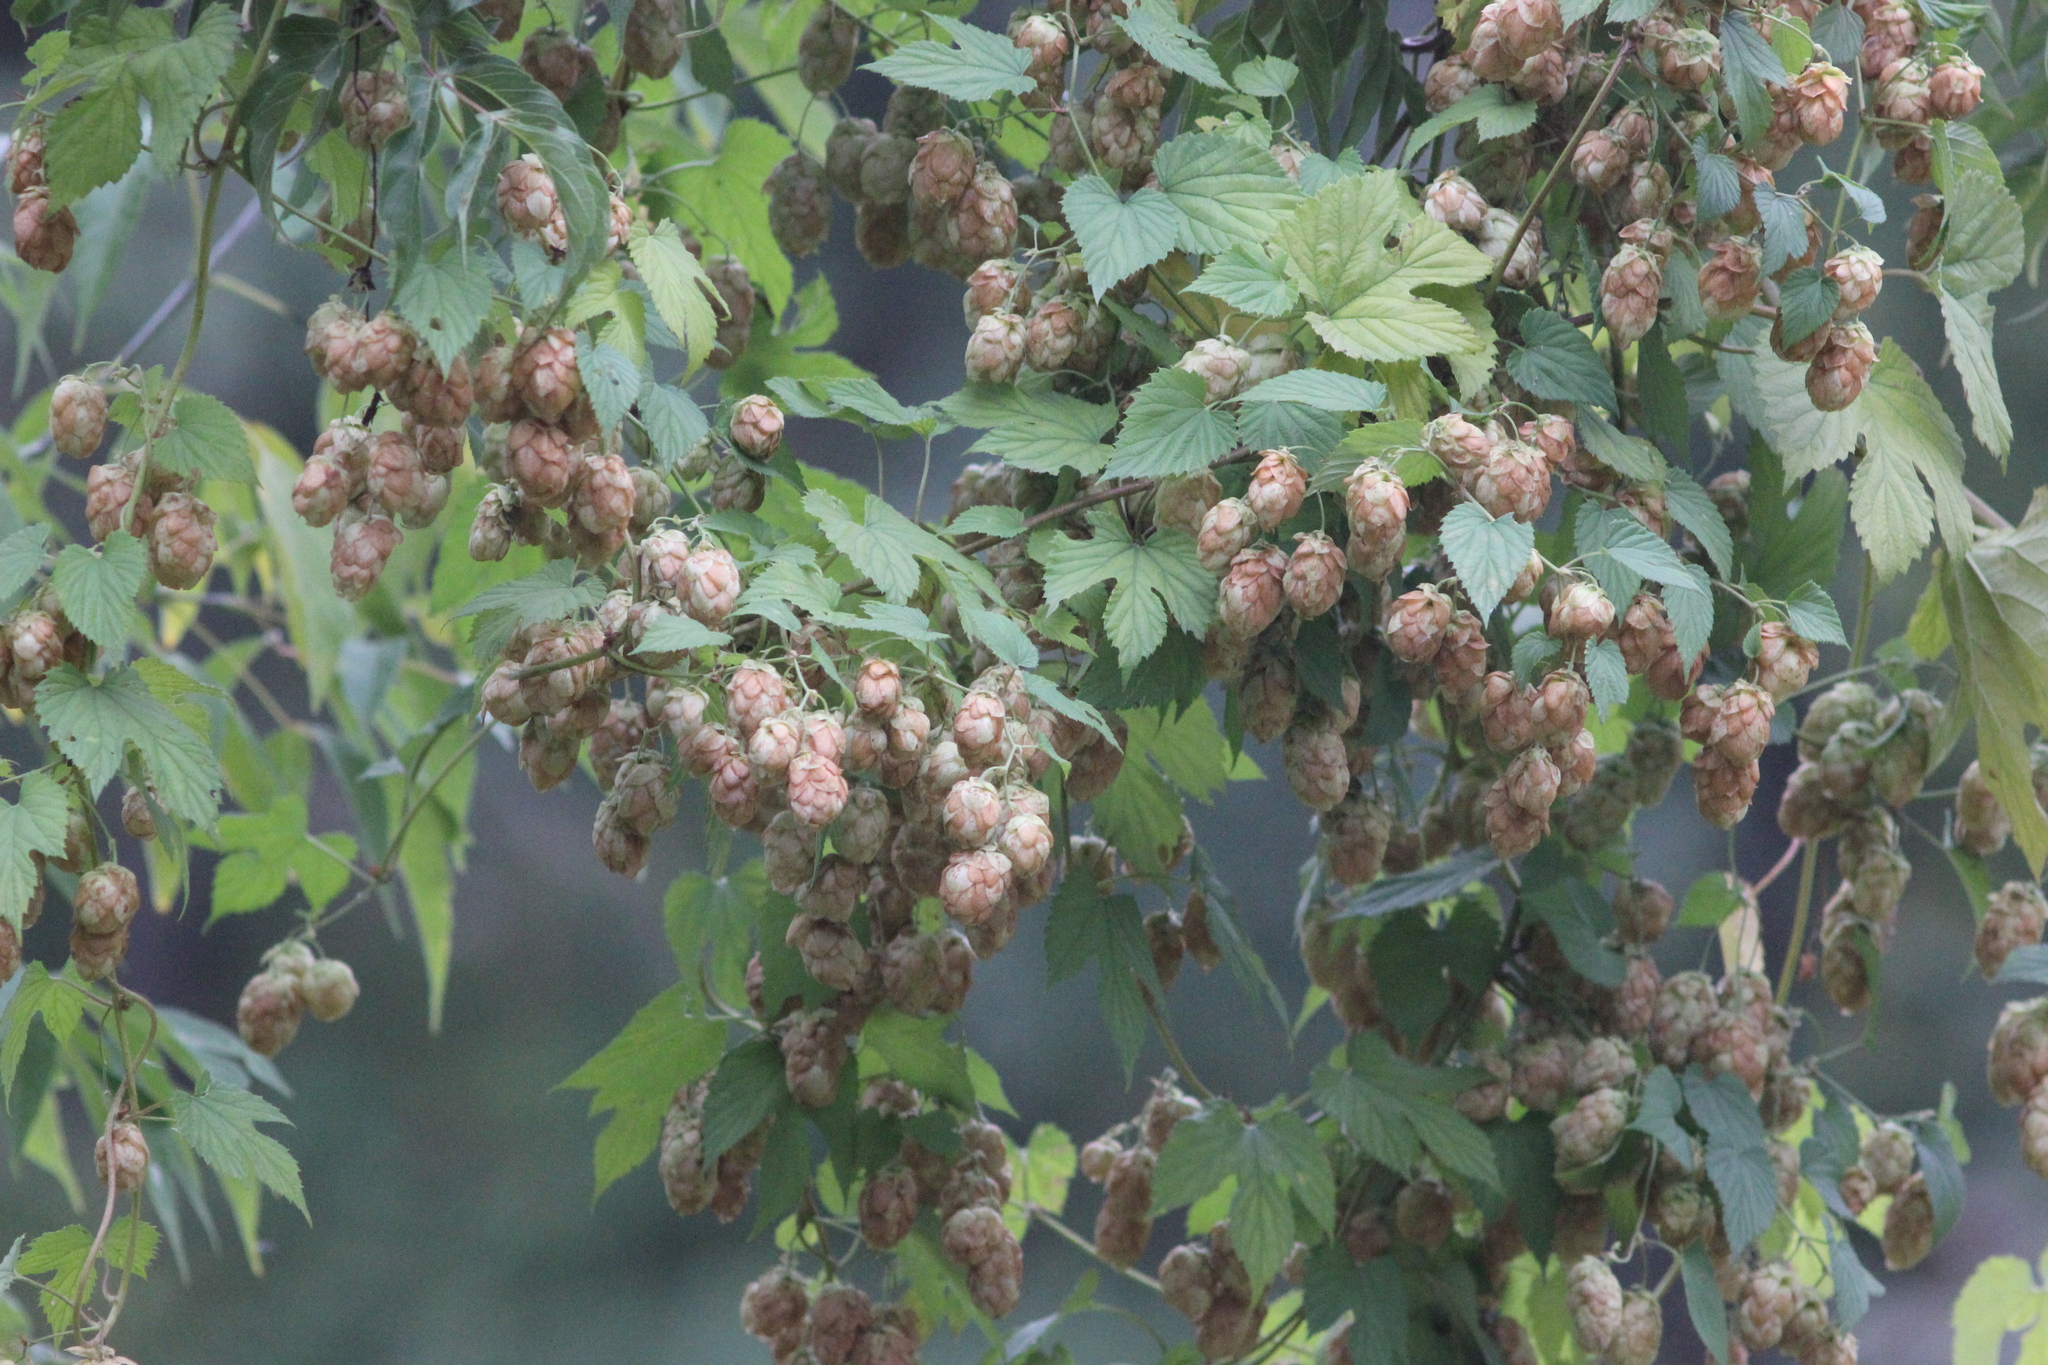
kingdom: Plantae
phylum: Tracheophyta
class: Magnoliopsida
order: Rosales
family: Cannabaceae
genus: Humulus
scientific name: Humulus lupulus
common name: Hop
